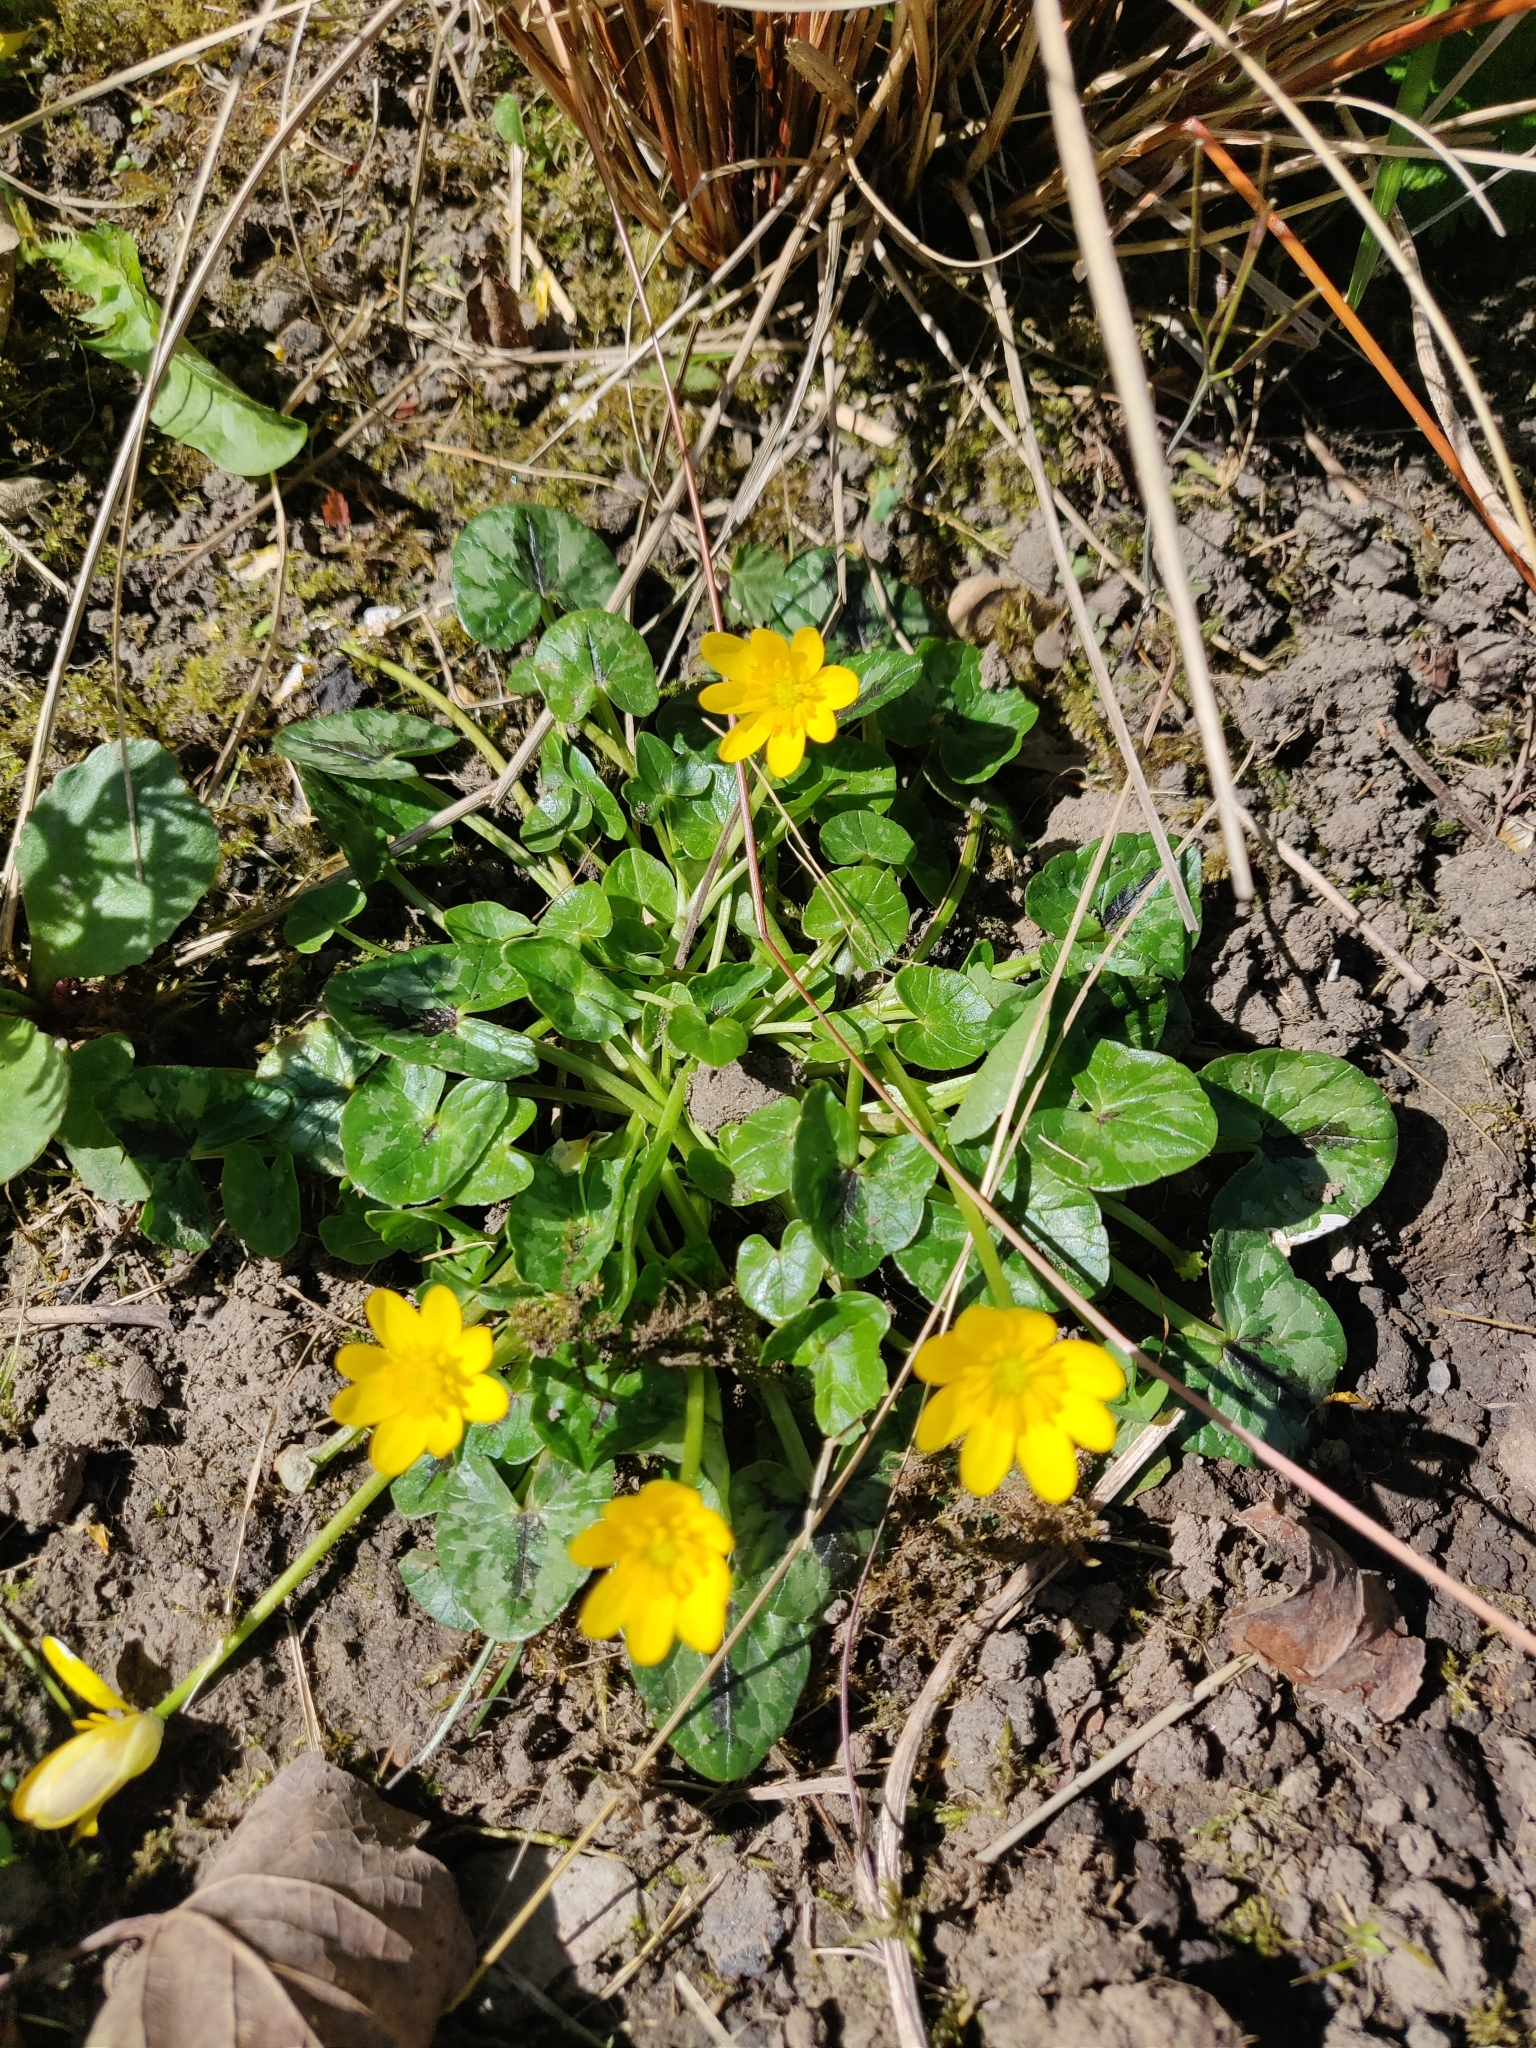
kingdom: Plantae
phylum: Tracheophyta
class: Magnoliopsida
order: Ranunculales
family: Ranunculaceae
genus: Ficaria
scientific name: Ficaria verna
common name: Lesser celandine
